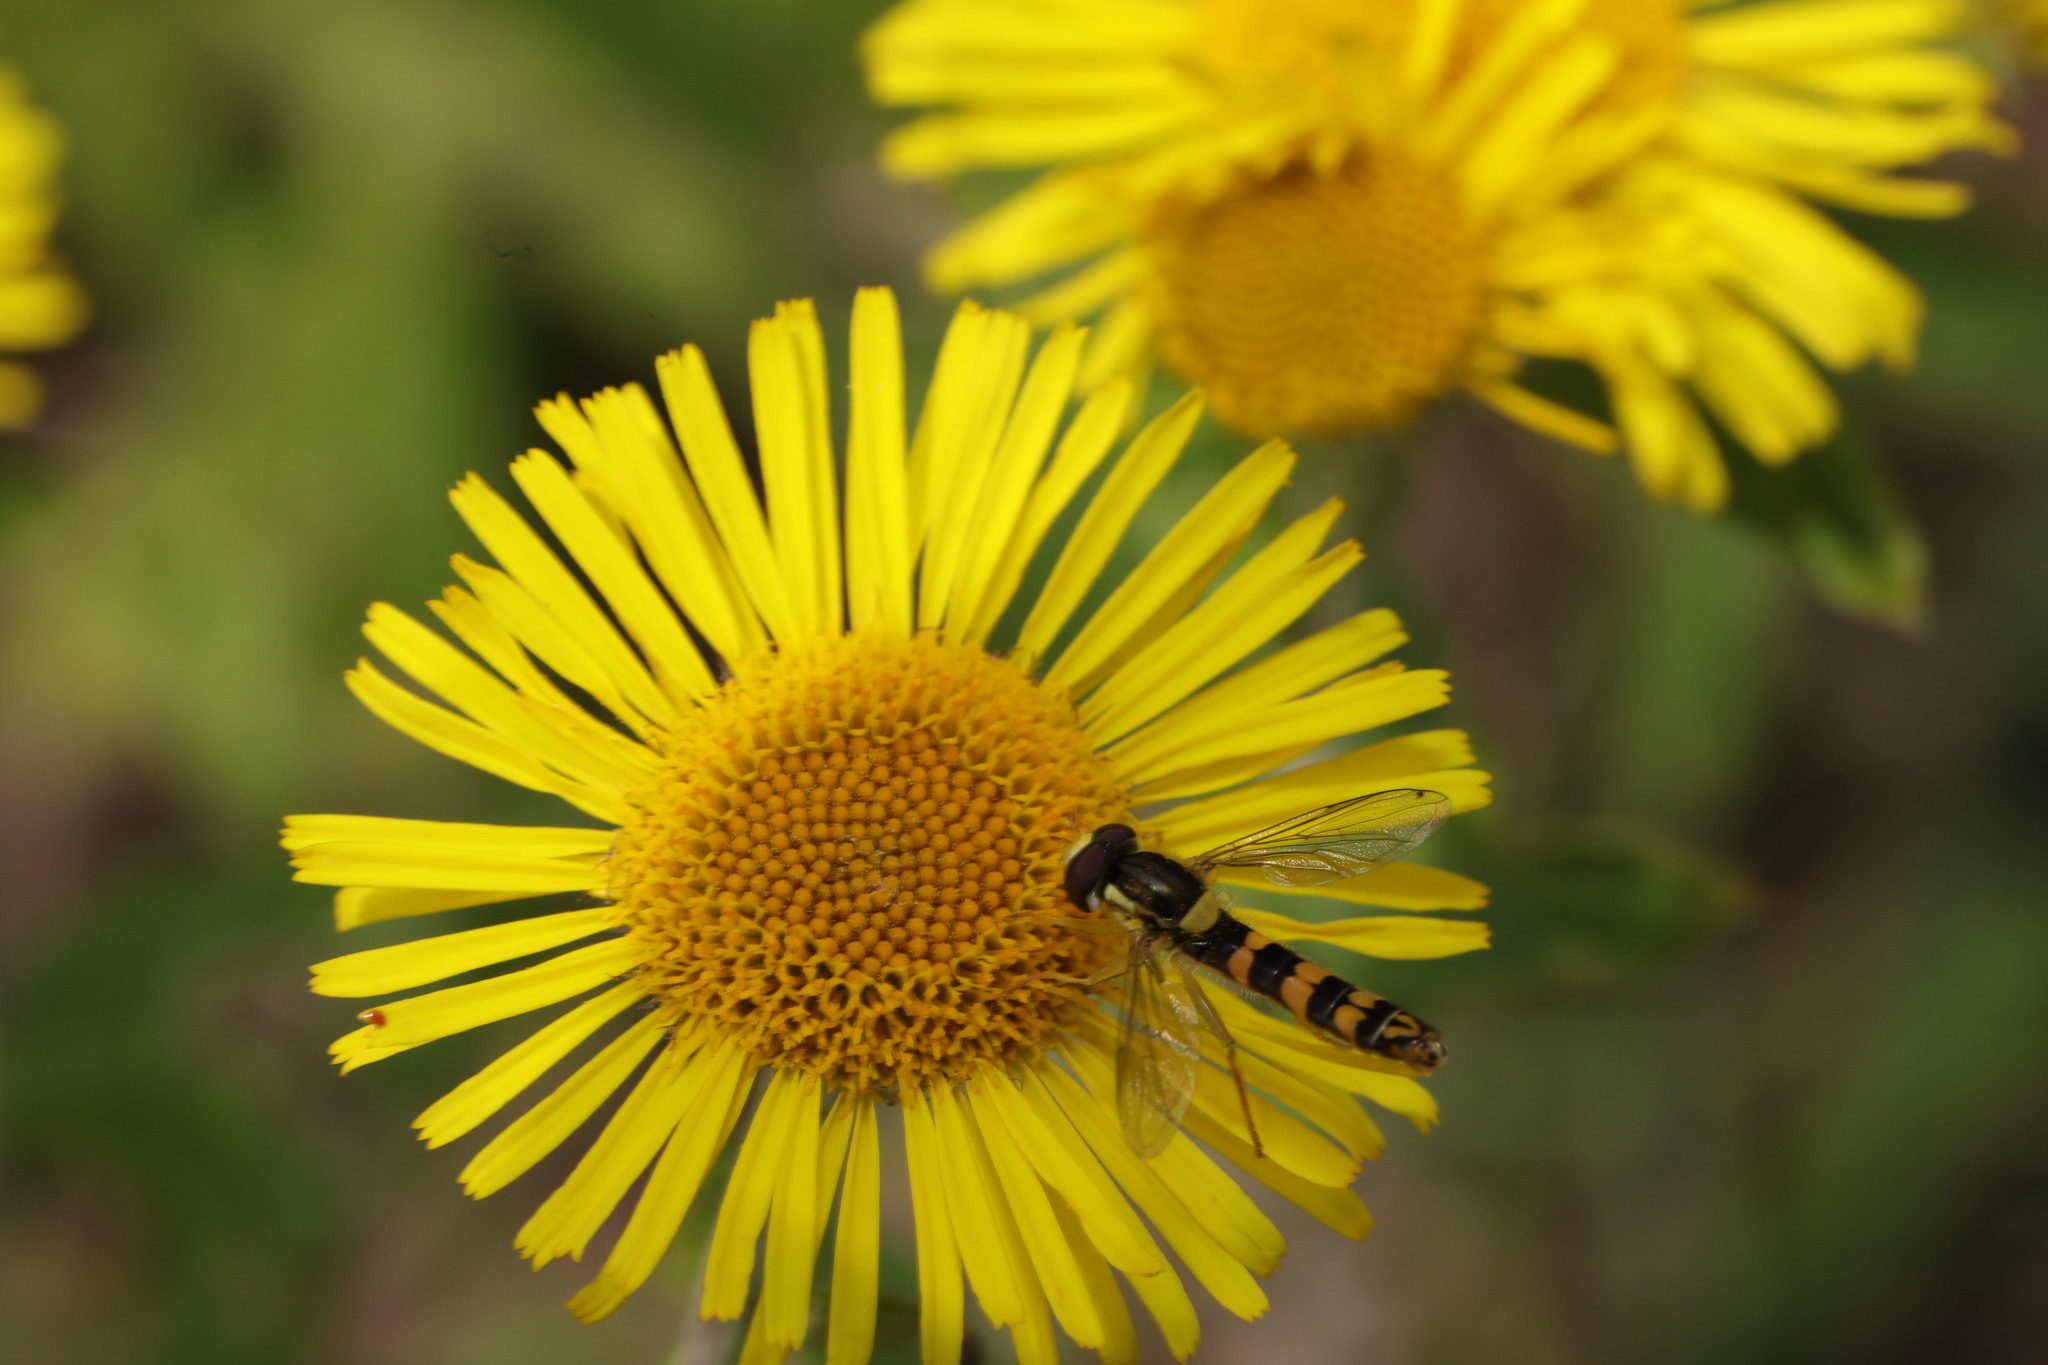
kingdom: Animalia
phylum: Arthropoda
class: Insecta
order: Diptera
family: Syrphidae
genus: Sphaerophoria
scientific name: Sphaerophoria scripta
